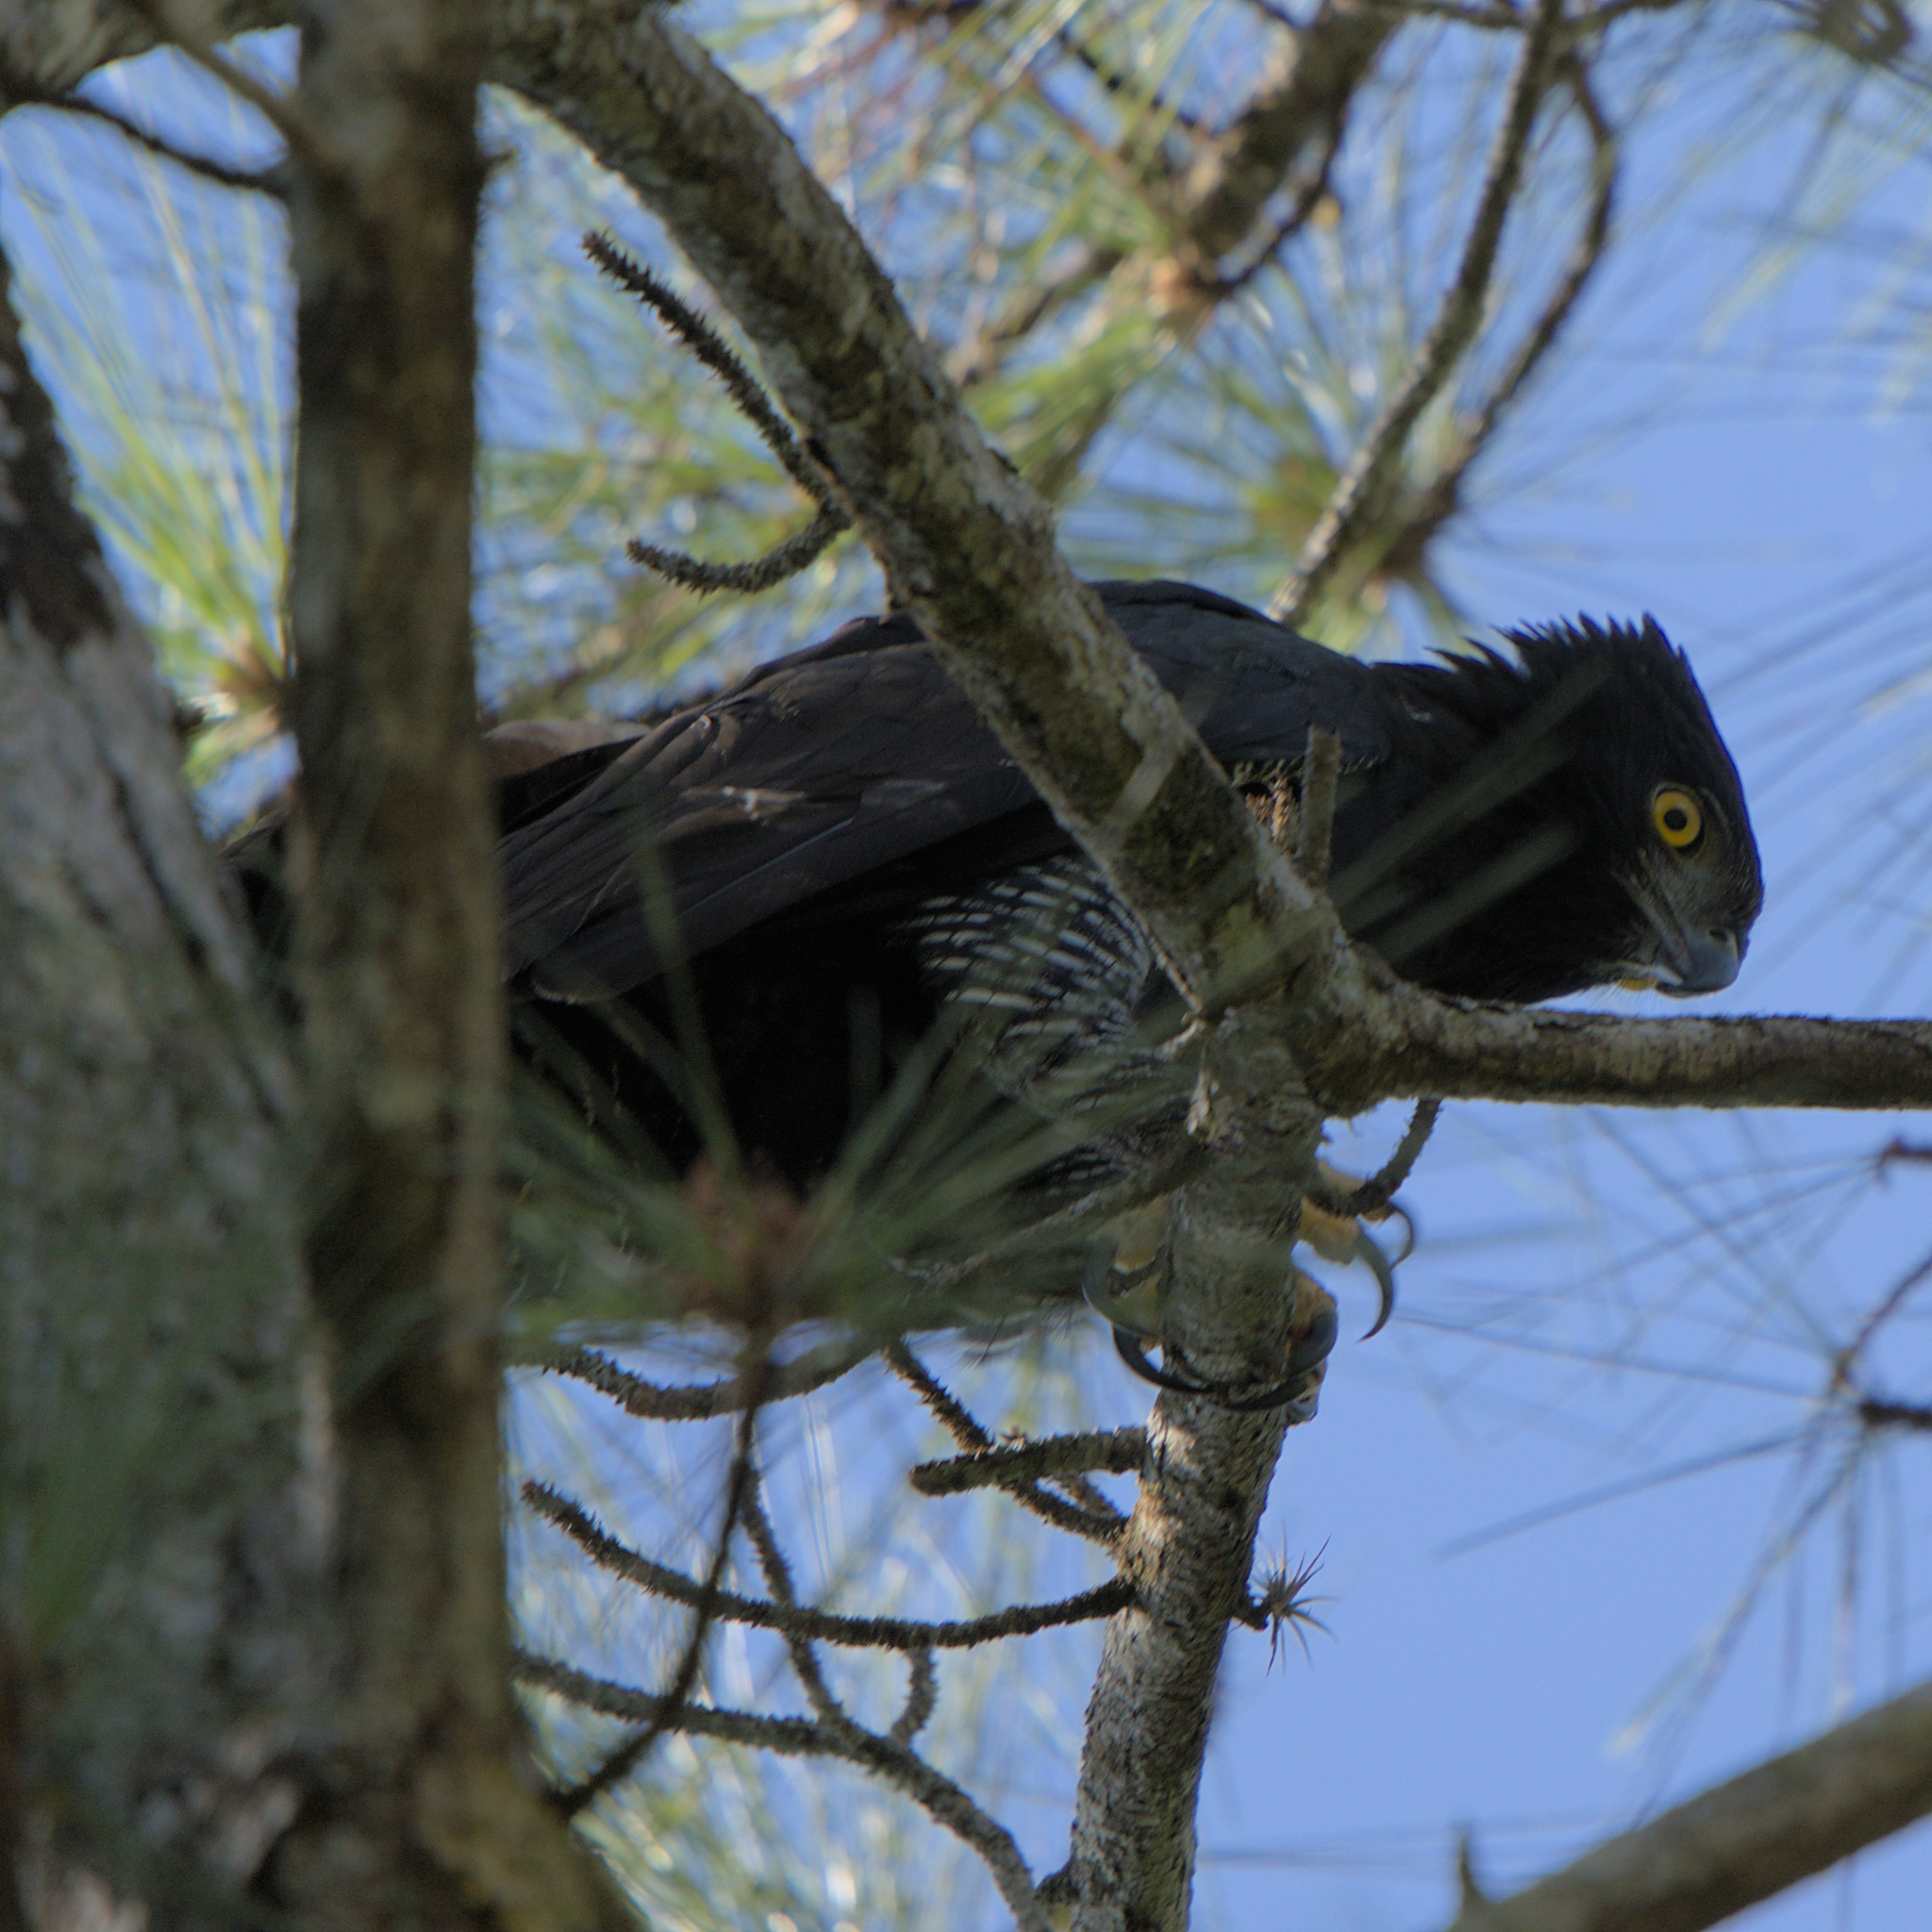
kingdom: Animalia
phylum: Chordata
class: Aves
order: Accipitriformes
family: Accipitridae
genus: Spizaetus
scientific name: Spizaetus tyrannus
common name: Black hawk-eagle
